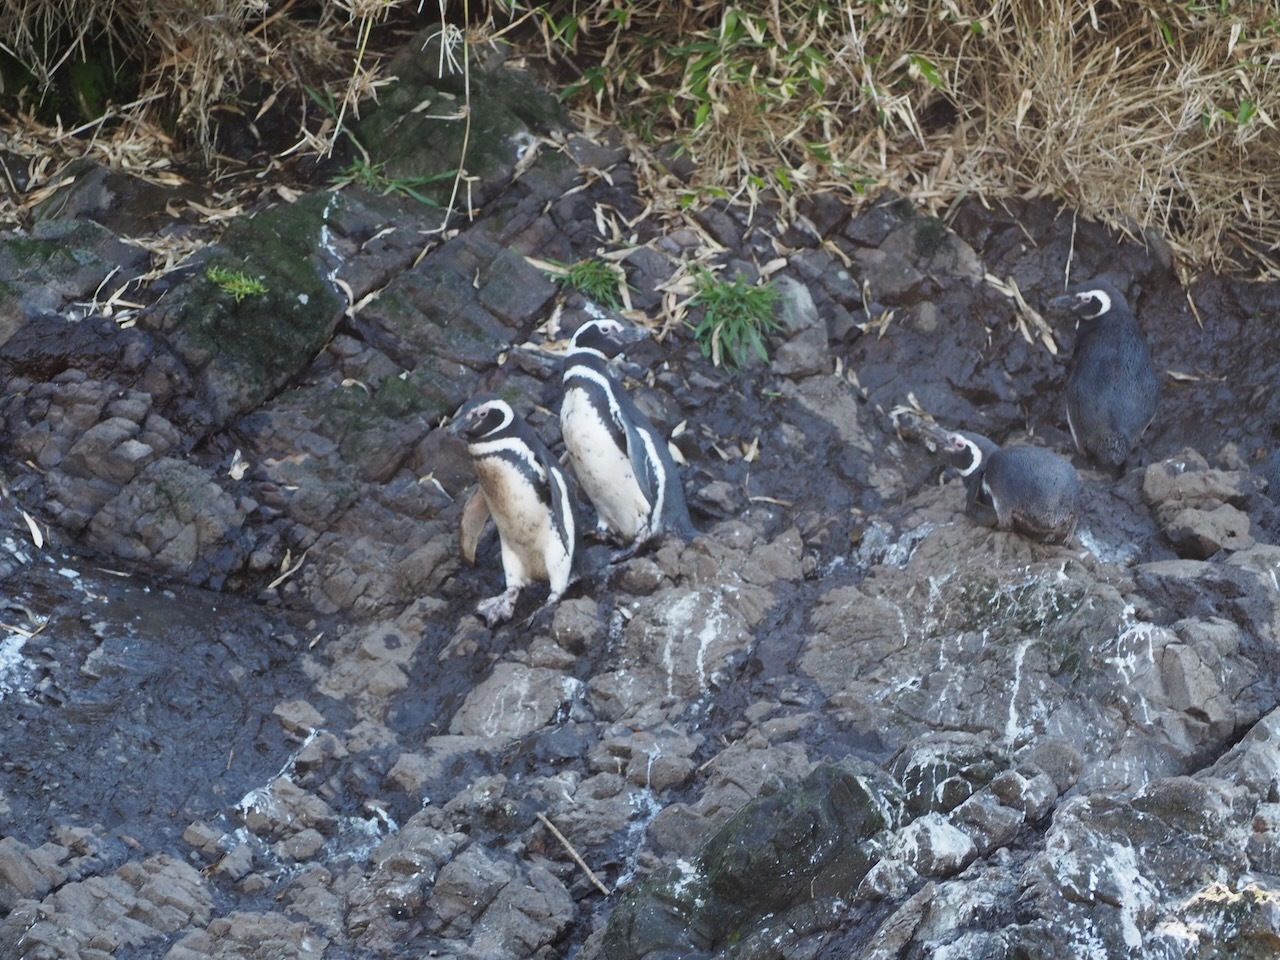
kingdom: Animalia
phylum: Chordata
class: Aves
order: Sphenisciformes
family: Spheniscidae
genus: Spheniscus
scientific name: Spheniscus magellanicus
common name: Magellanic penguin
